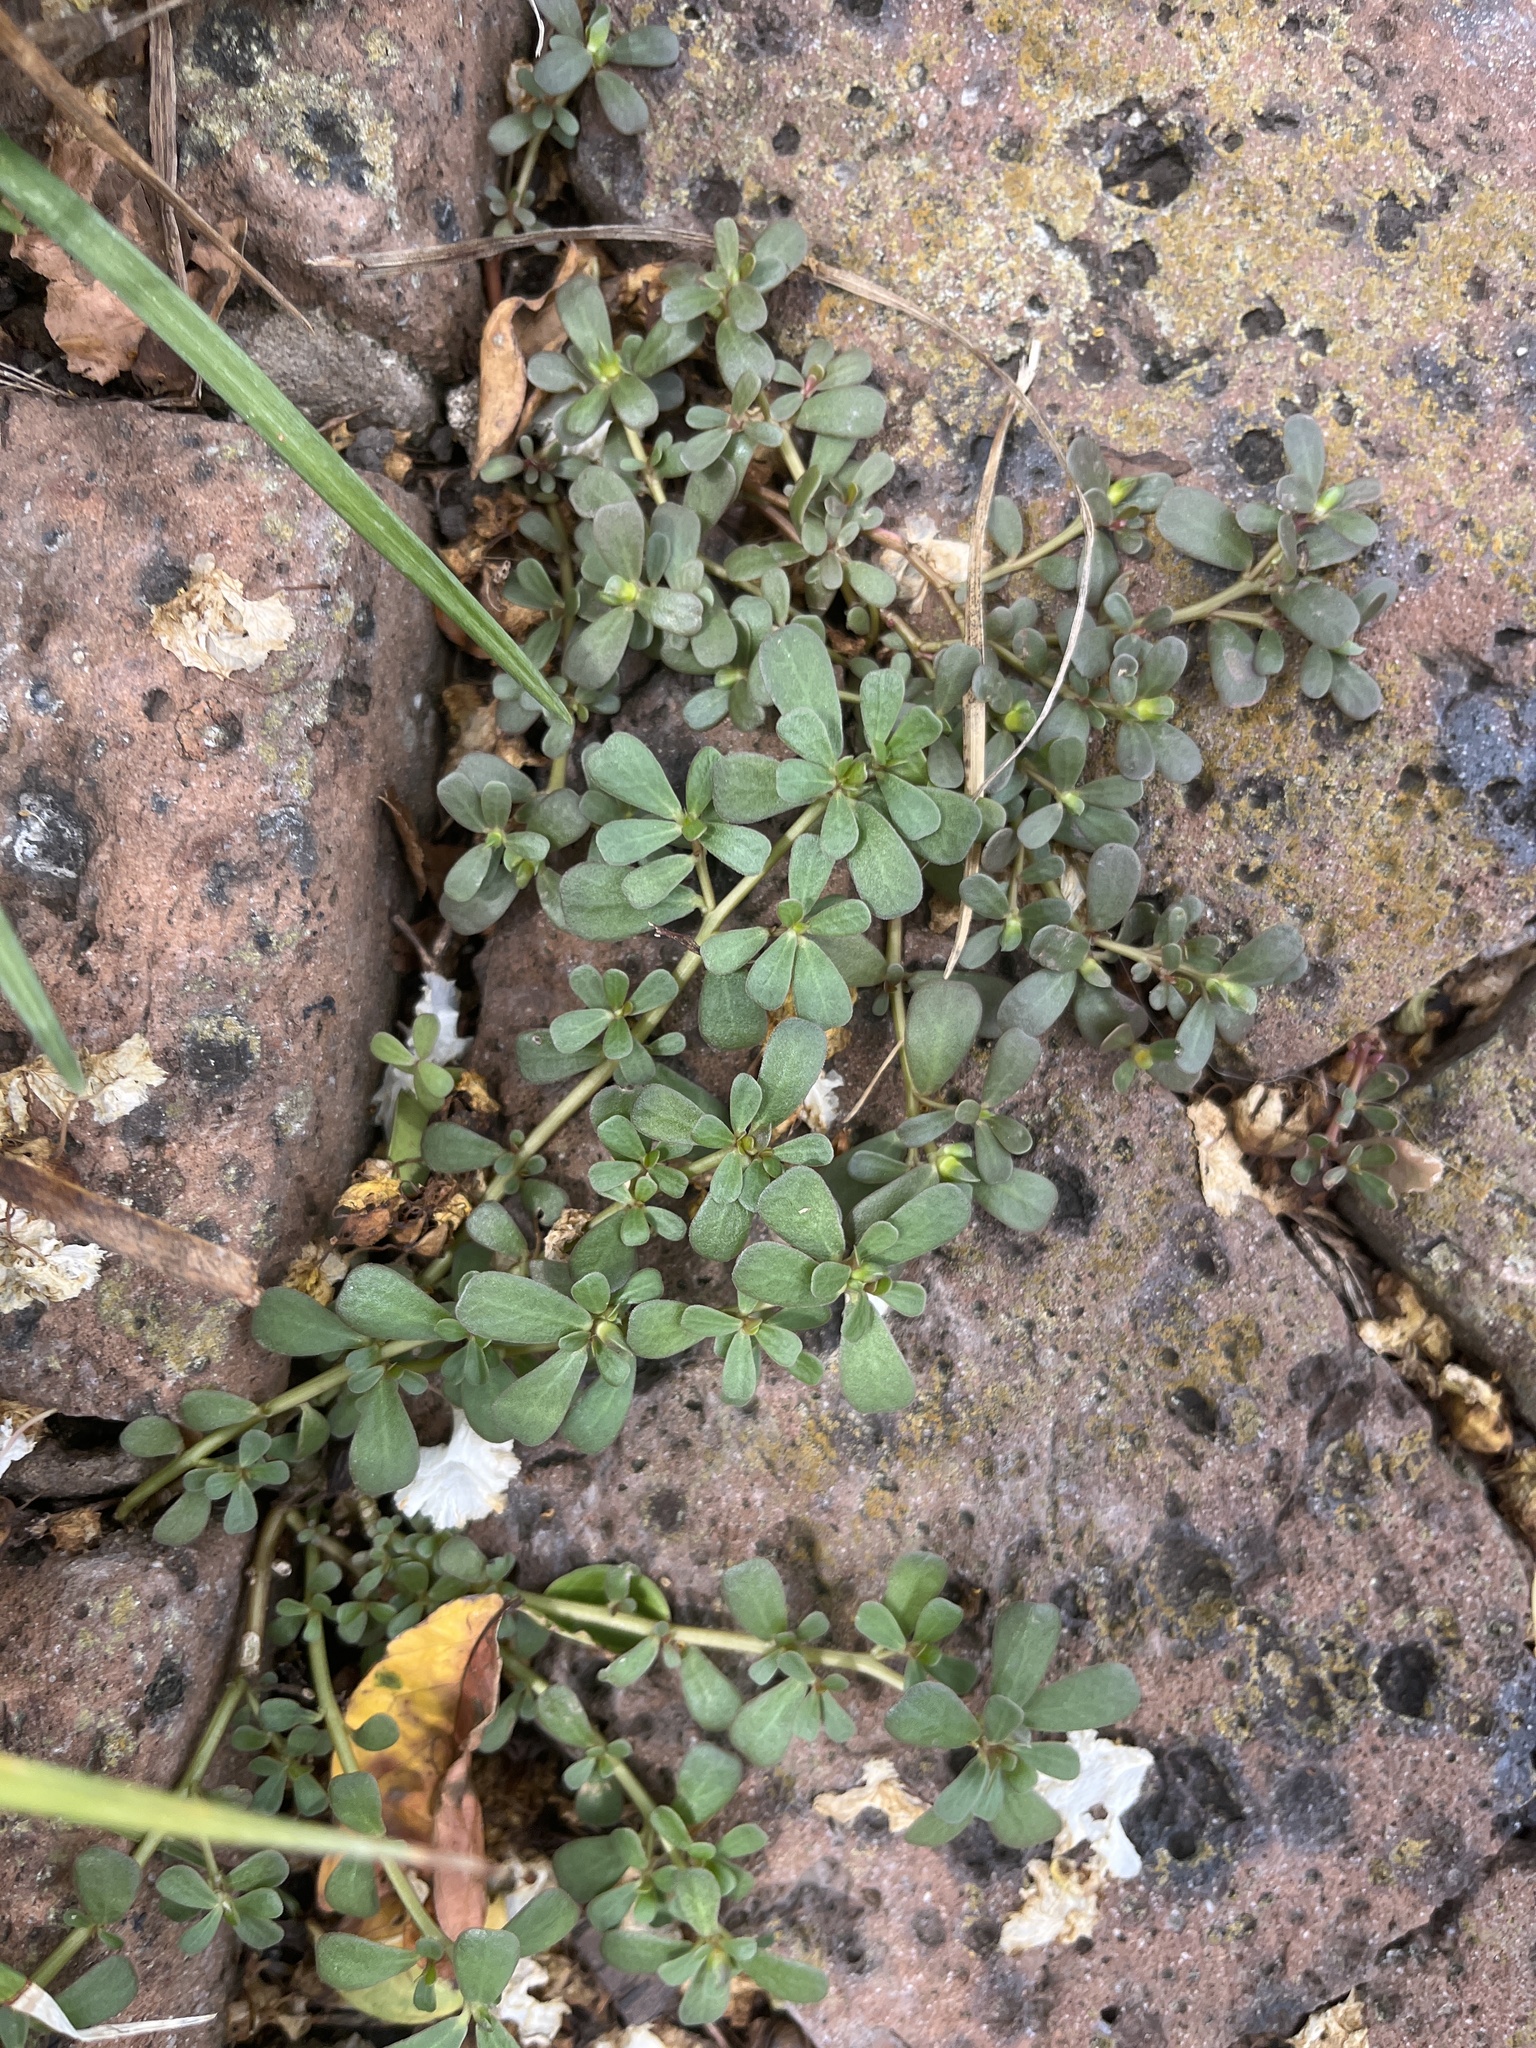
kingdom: Plantae
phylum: Tracheophyta
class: Magnoliopsida
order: Caryophyllales
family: Portulacaceae
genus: Portulaca
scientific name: Portulaca oleracea
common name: Common purslane
